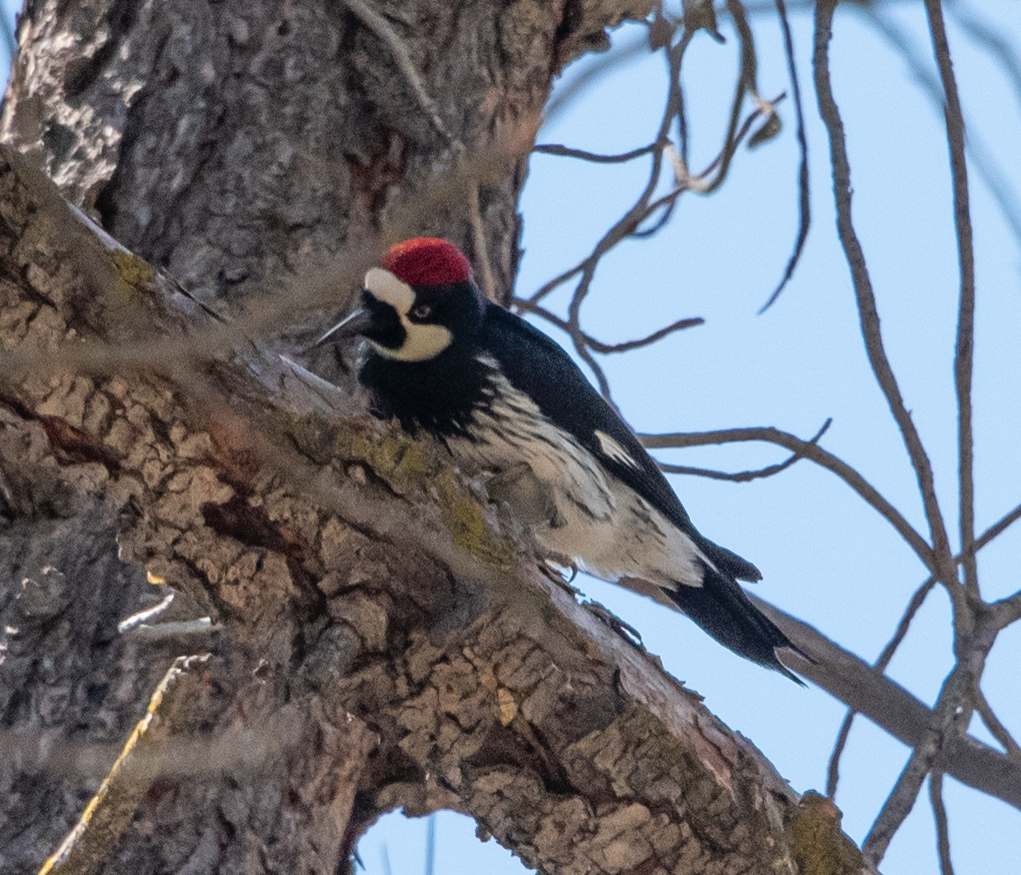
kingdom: Animalia
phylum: Chordata
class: Aves
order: Piciformes
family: Picidae
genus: Melanerpes
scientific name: Melanerpes formicivorus
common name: Acorn woodpecker
